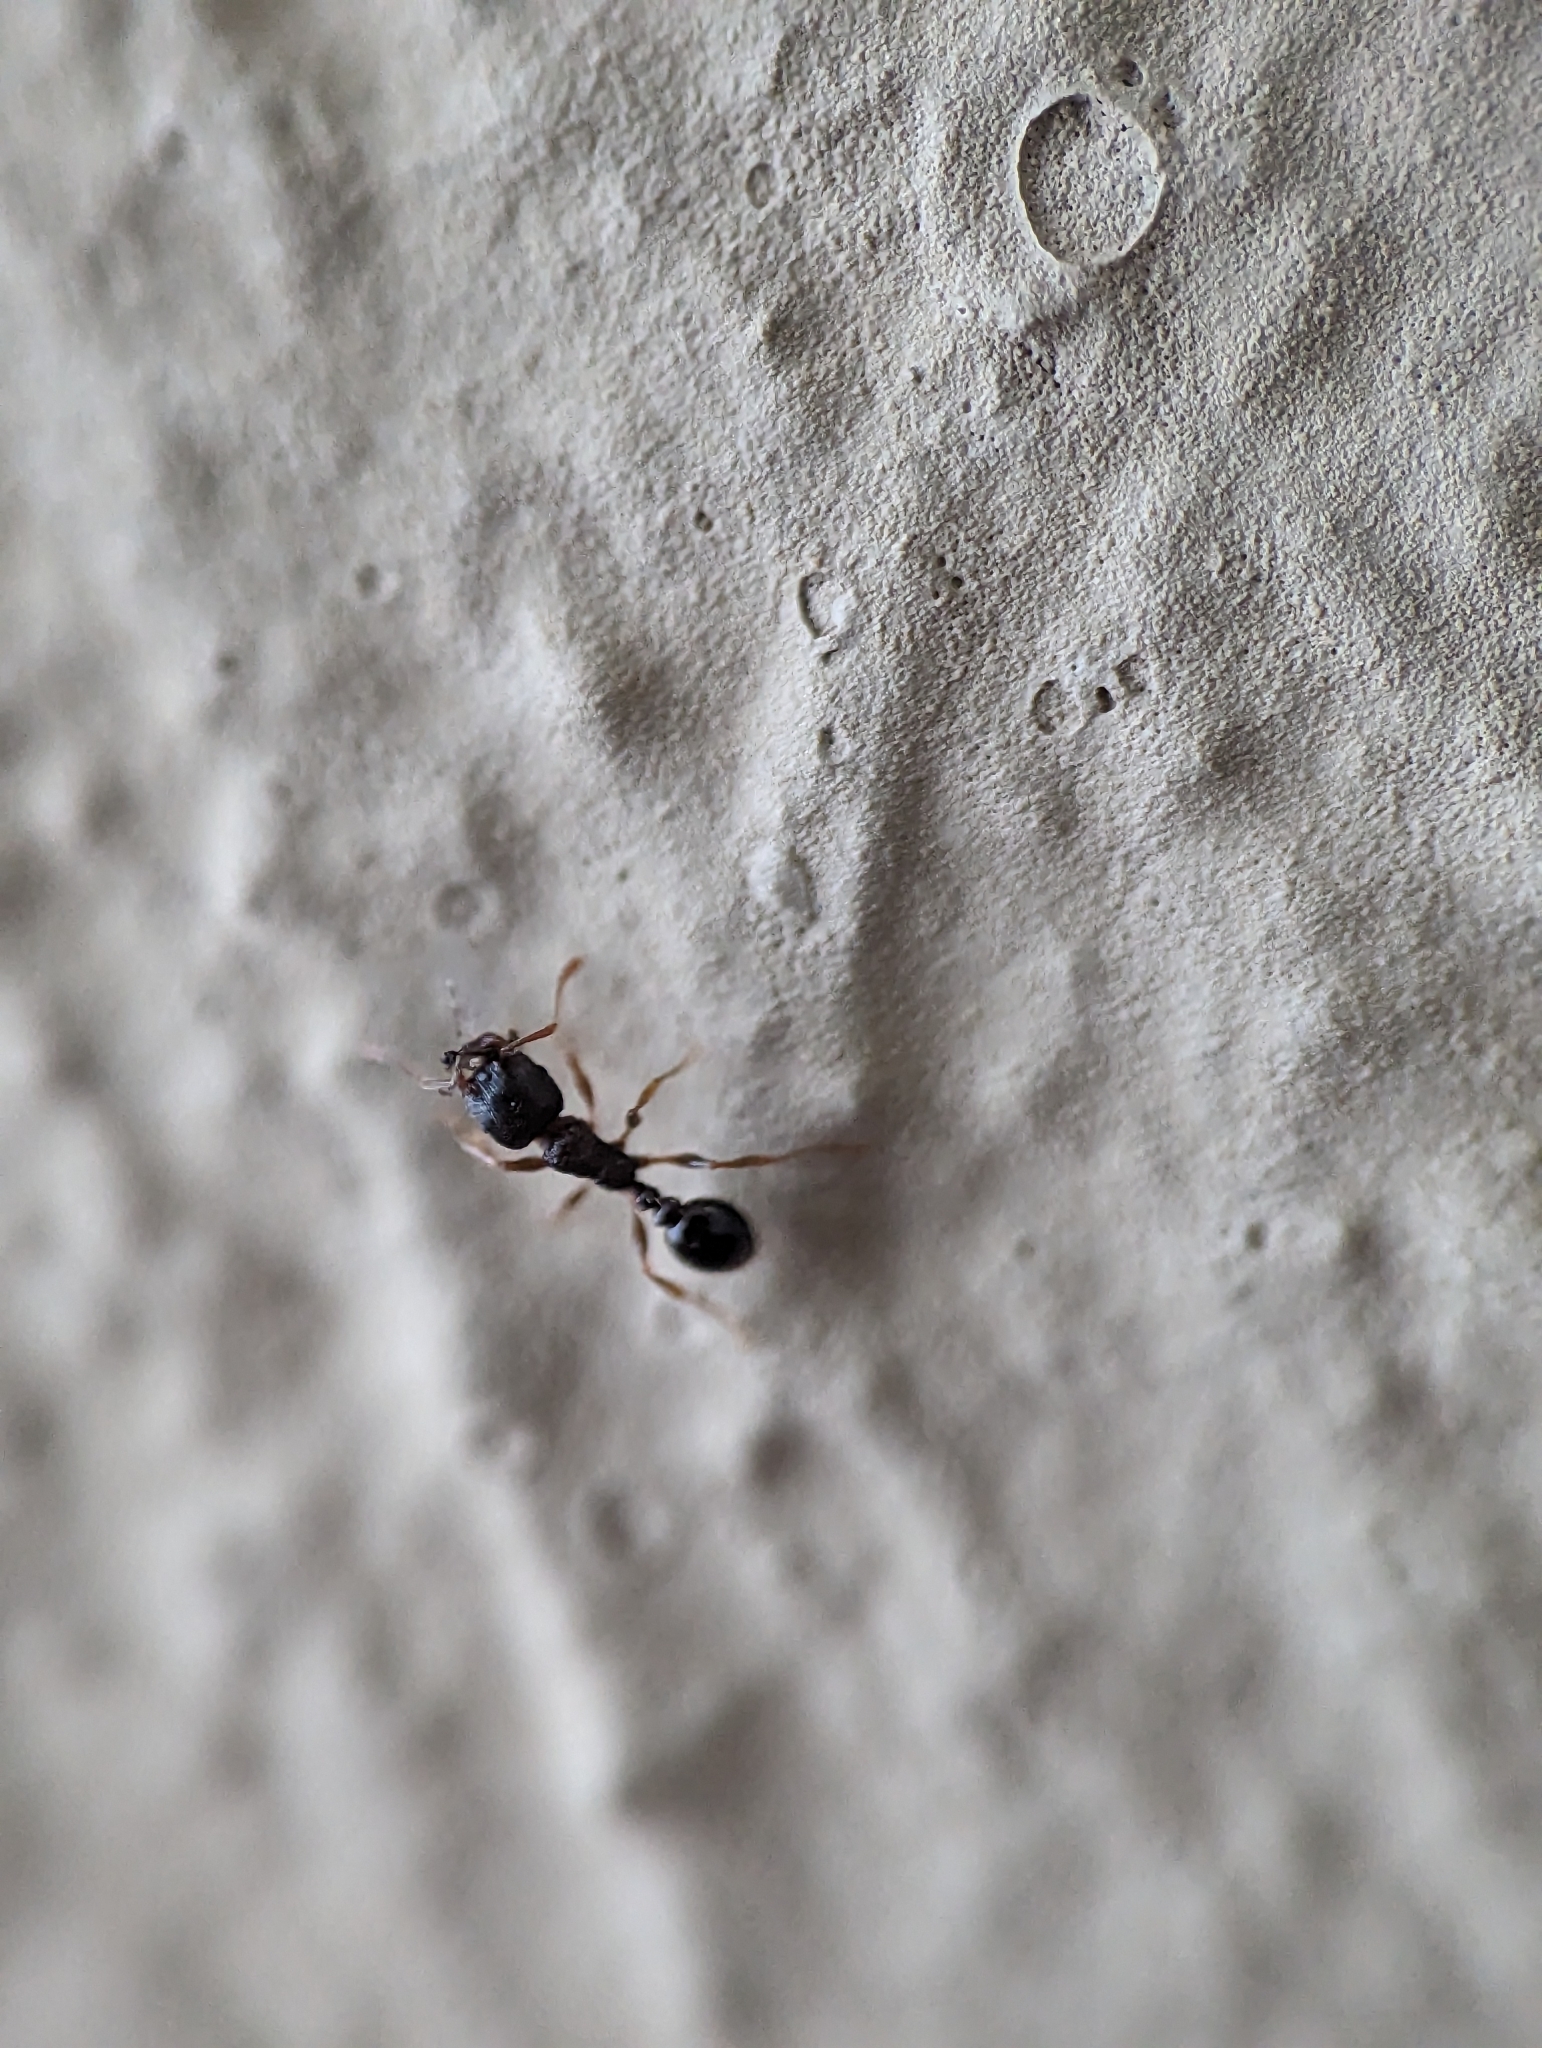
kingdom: Animalia
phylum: Arthropoda
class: Insecta
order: Hymenoptera
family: Formicidae
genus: Tetramorium
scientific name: Tetramorium immigrans
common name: Pavement ant
